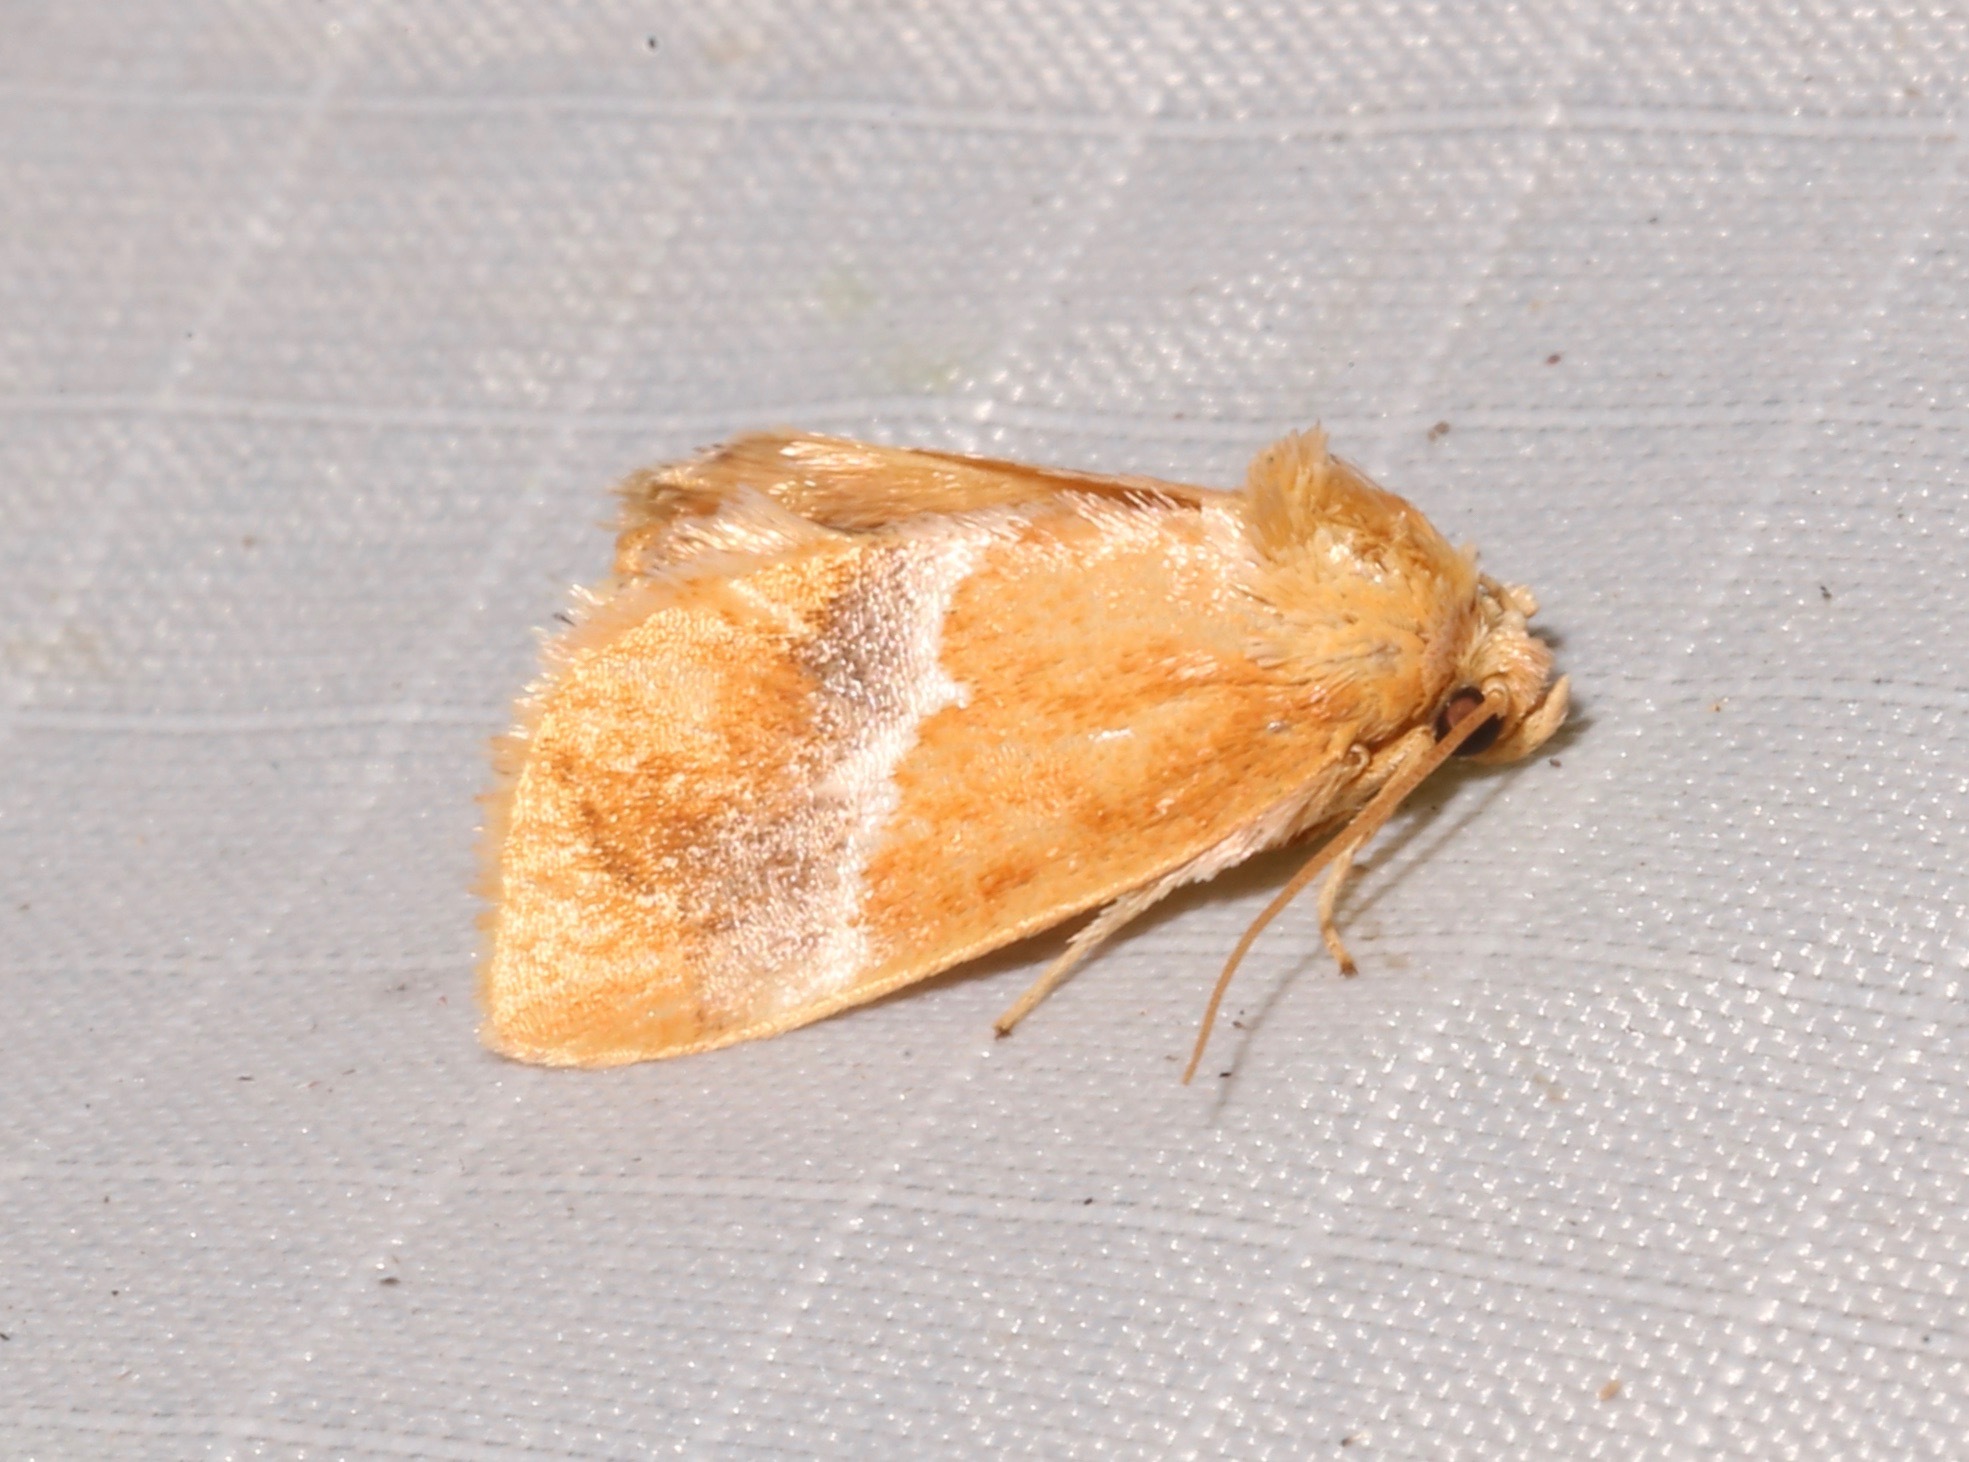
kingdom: Animalia
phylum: Arthropoda
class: Insecta
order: Lepidoptera
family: Limacodidae
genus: Lithacodes
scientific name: Lithacodes fasciola
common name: Yellow-shouldered slug moth
